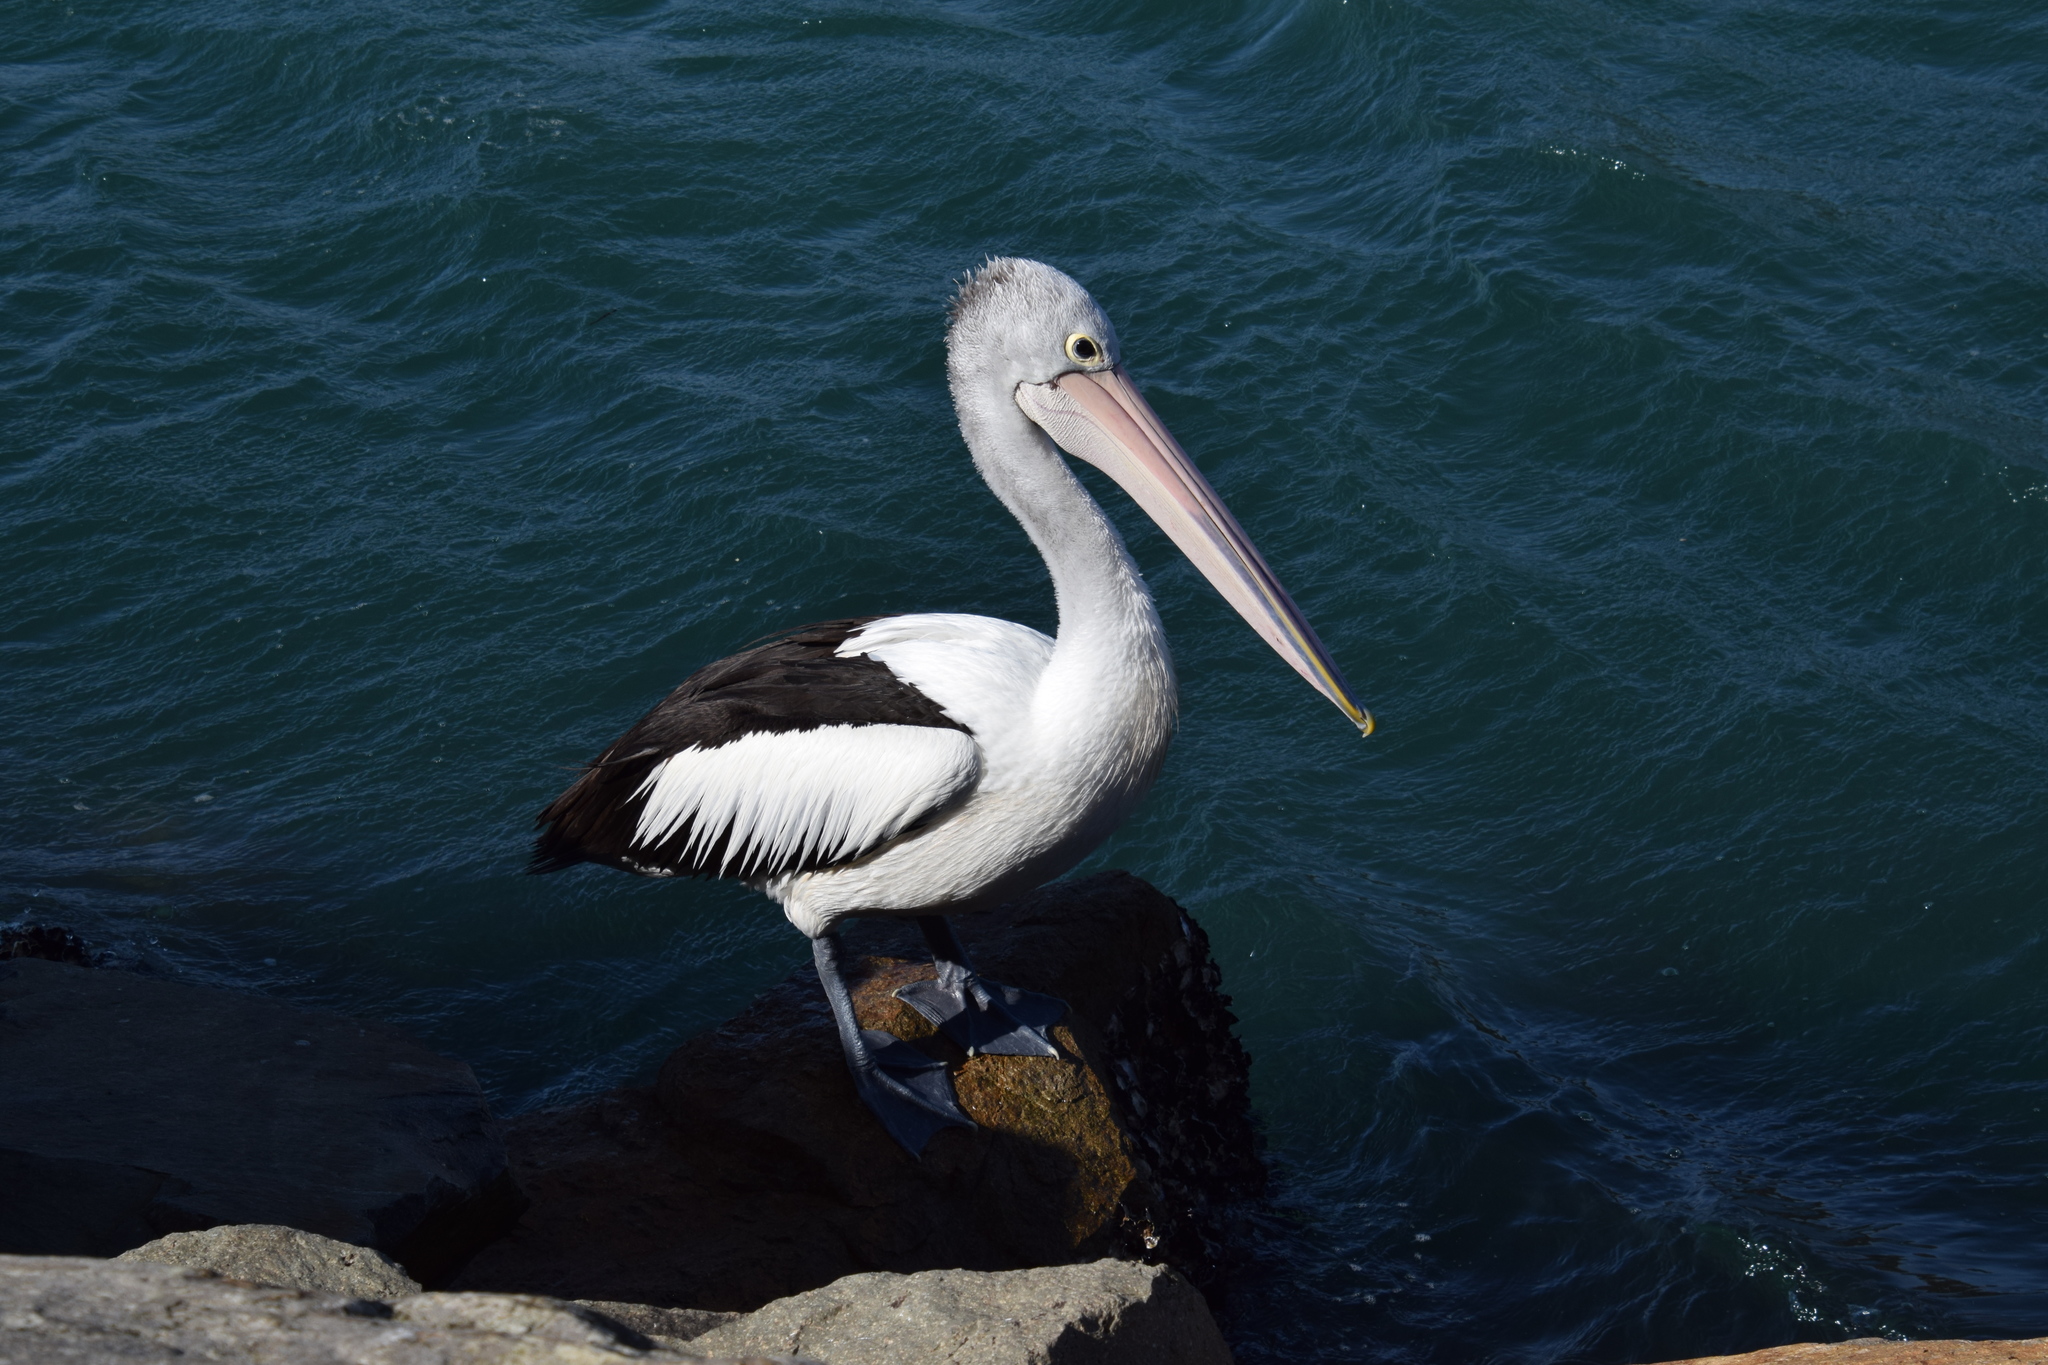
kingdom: Animalia
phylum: Chordata
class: Aves
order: Pelecaniformes
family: Pelecanidae
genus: Pelecanus
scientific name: Pelecanus conspicillatus
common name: Australian pelican
